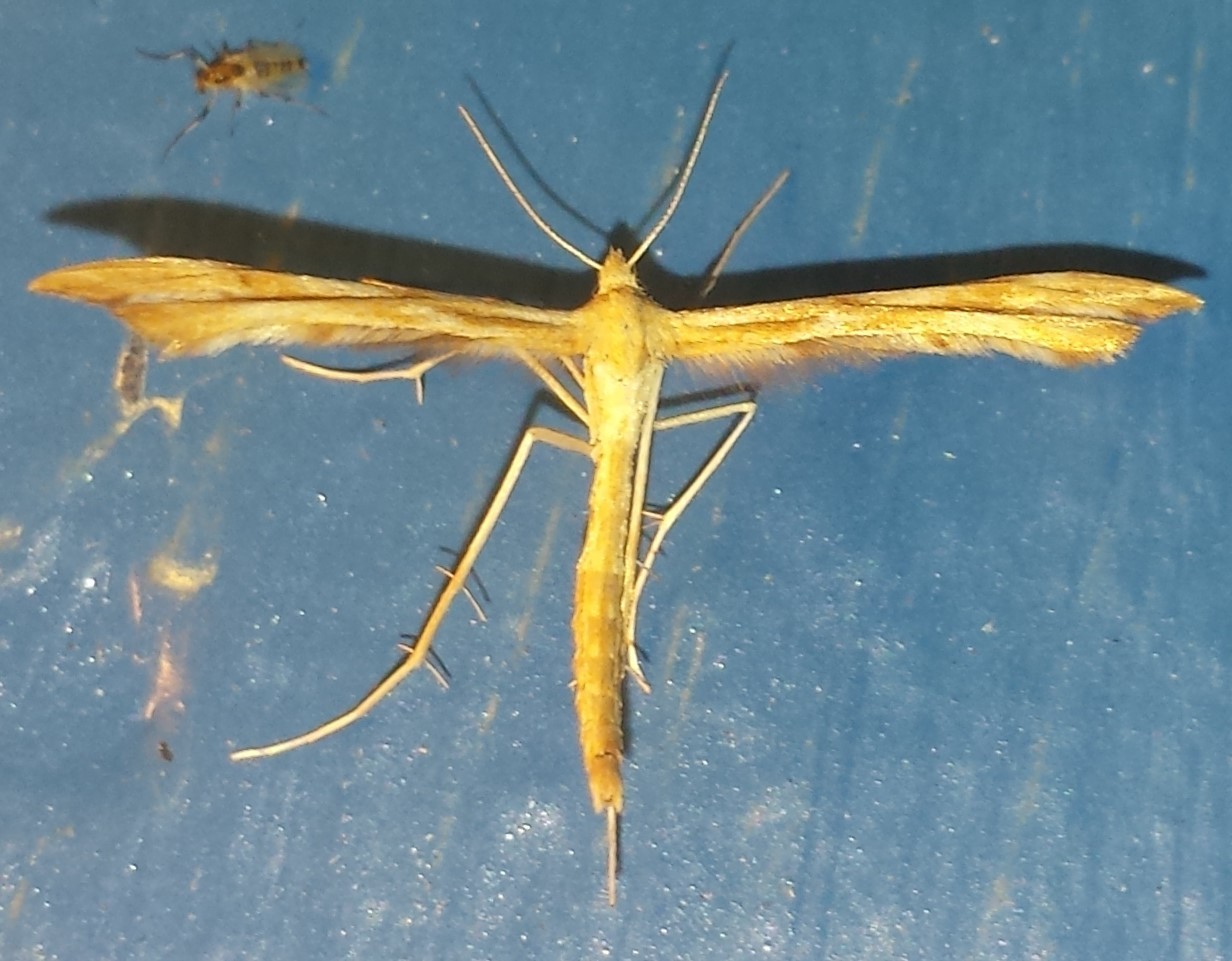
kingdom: Animalia
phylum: Arthropoda
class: Insecta
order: Lepidoptera
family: Pterophoridae
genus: Gillmeria
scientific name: Gillmeria pallidactyla
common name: Yarrow plume
